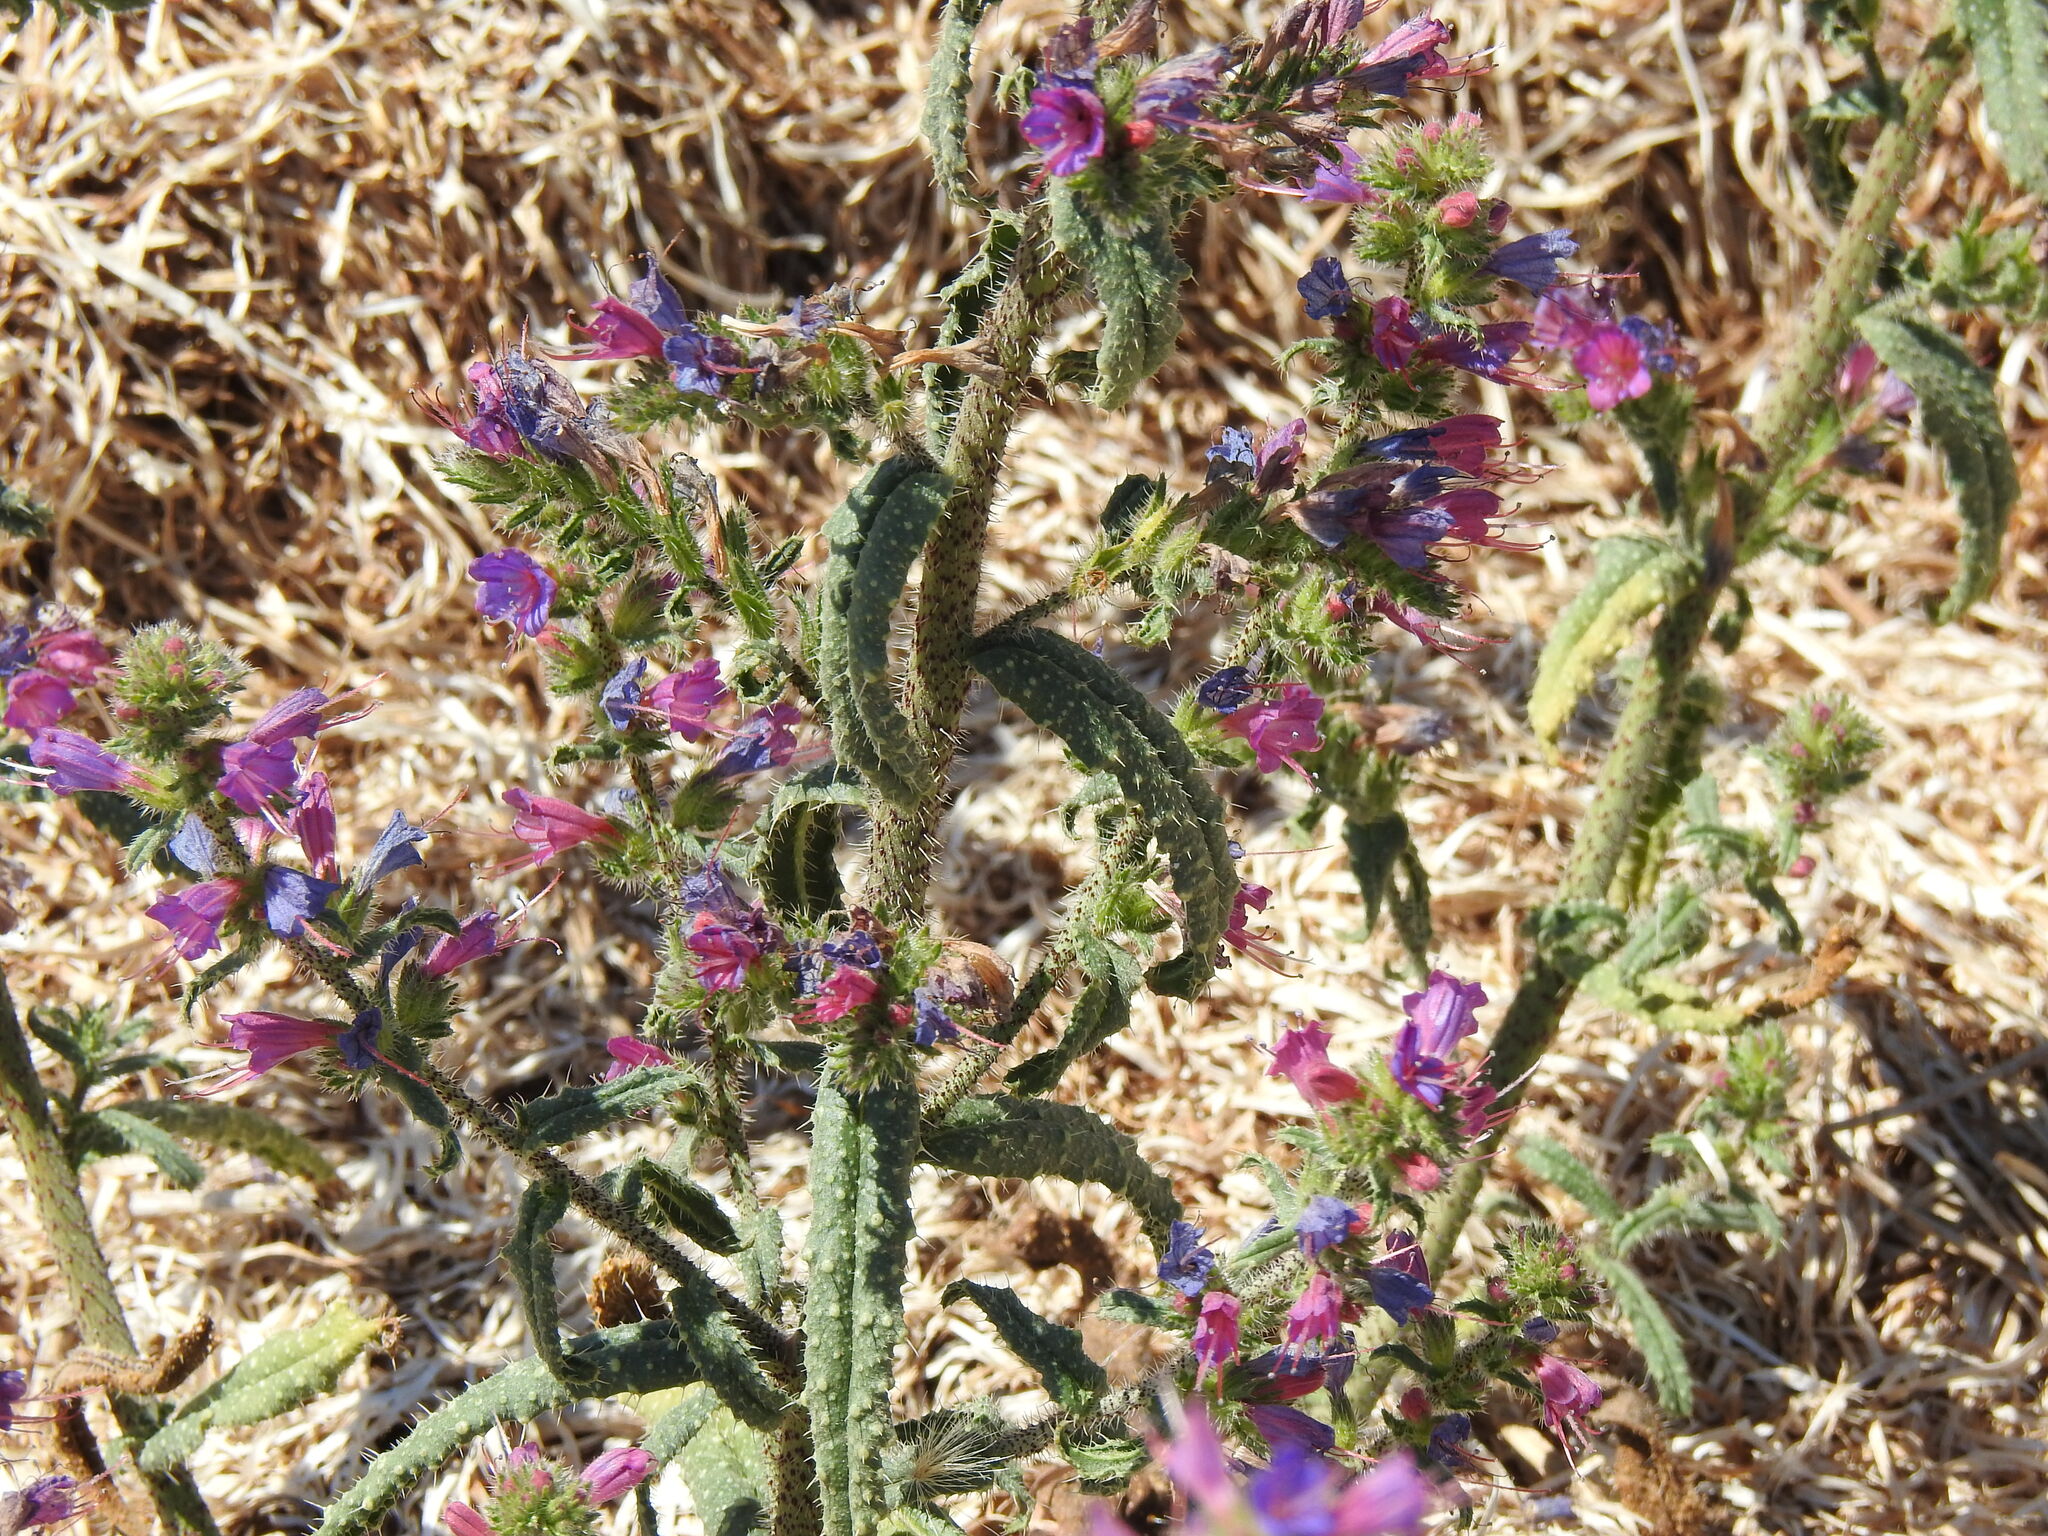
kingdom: Plantae
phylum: Tracheophyta
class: Magnoliopsida
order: Boraginales
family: Boraginaceae
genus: Echium
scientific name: Echium gaditanum
